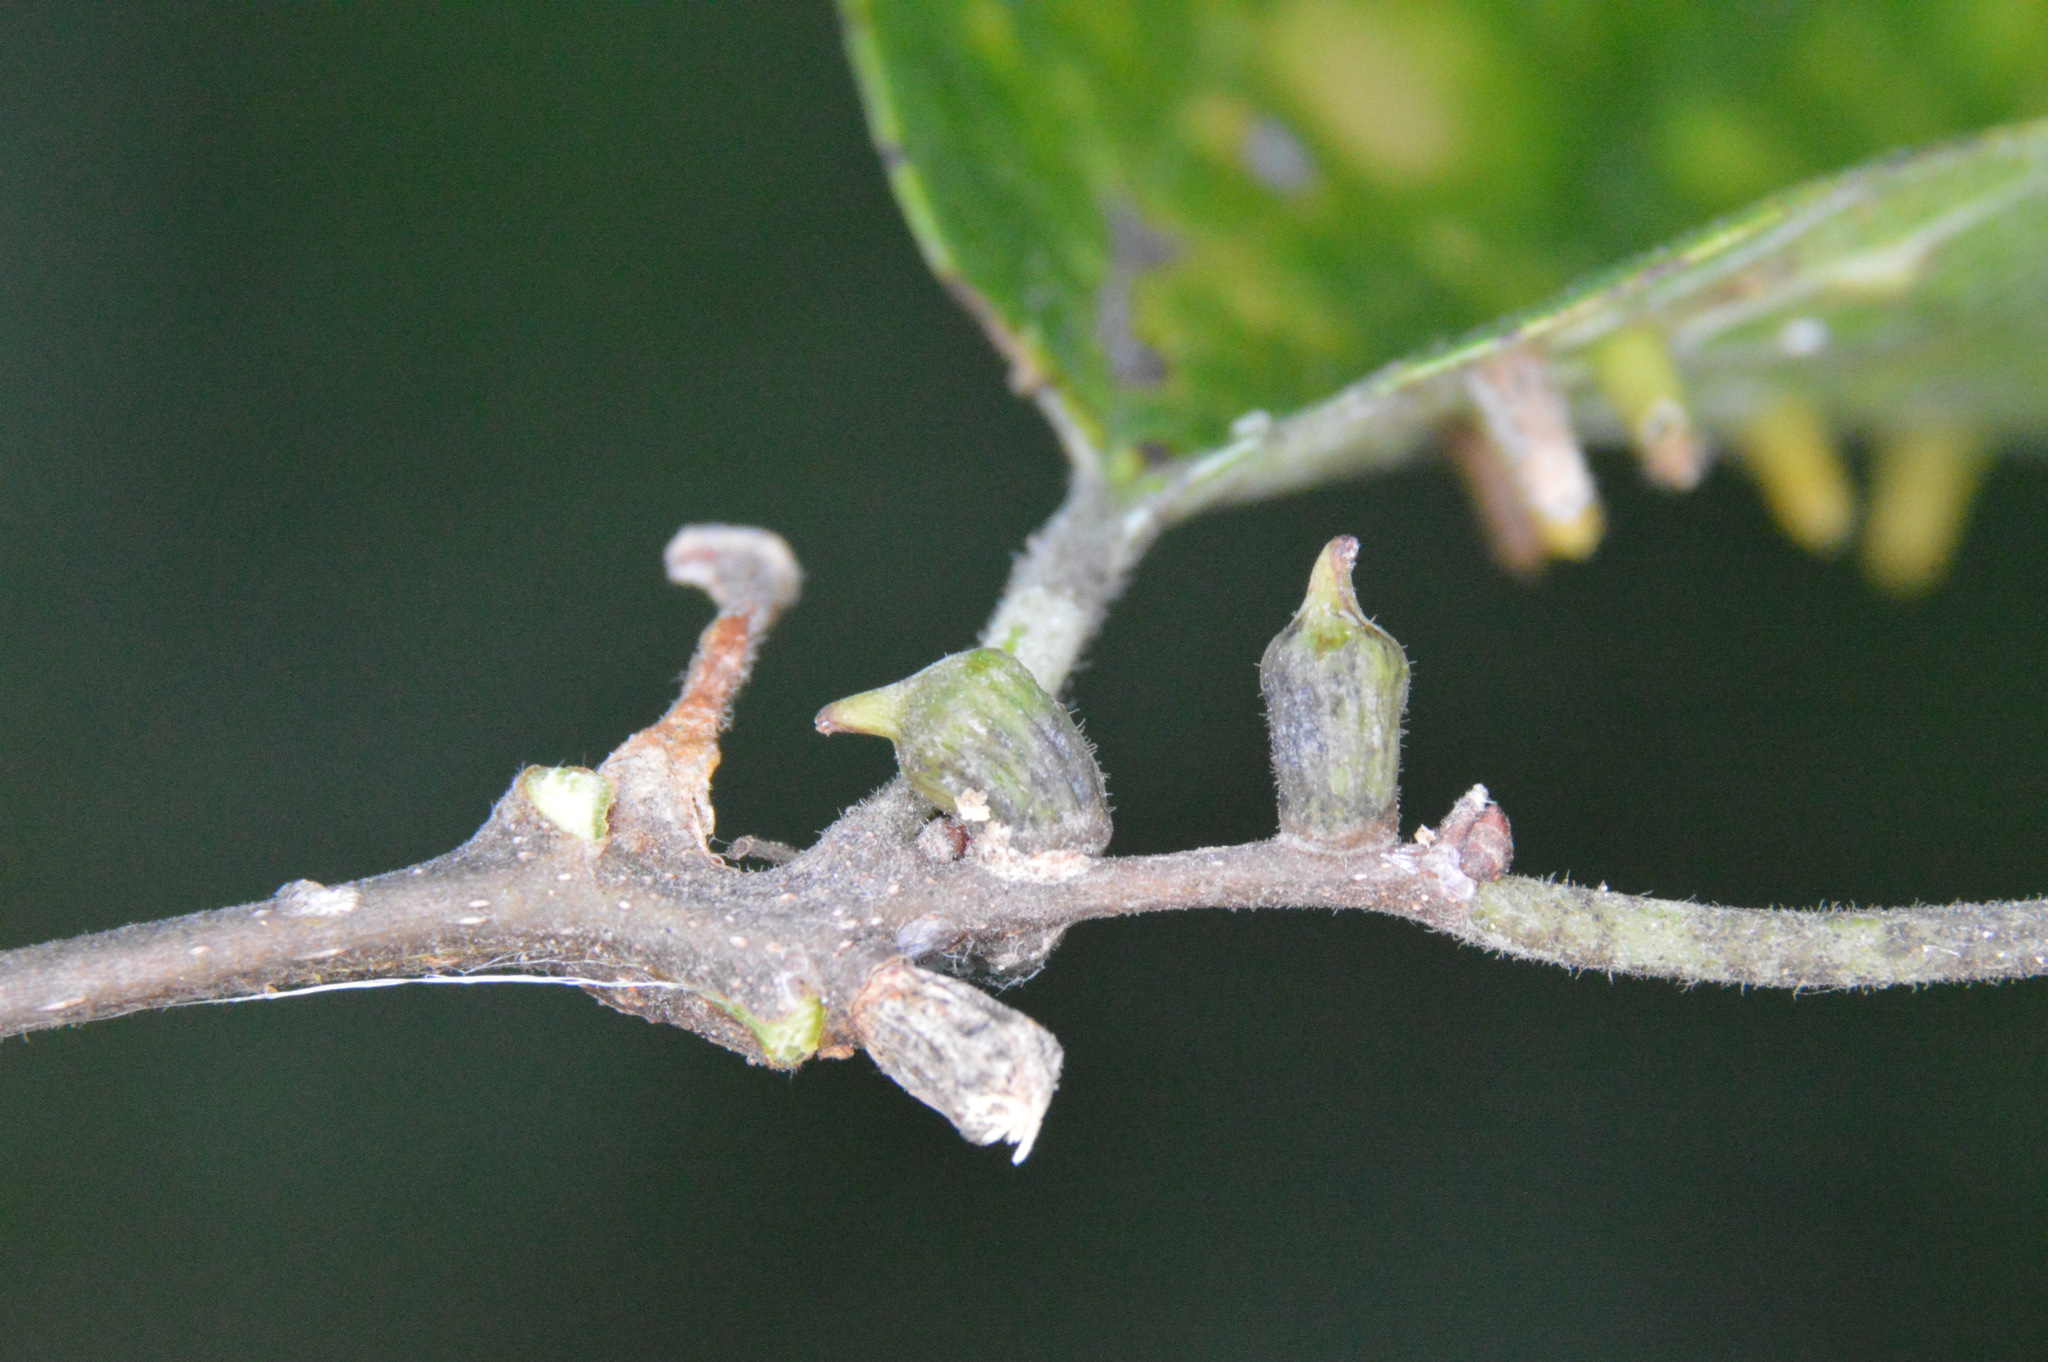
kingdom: Animalia
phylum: Arthropoda
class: Insecta
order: Diptera
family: Cecidomyiidae
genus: Celticecis
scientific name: Celticecis ramicola
